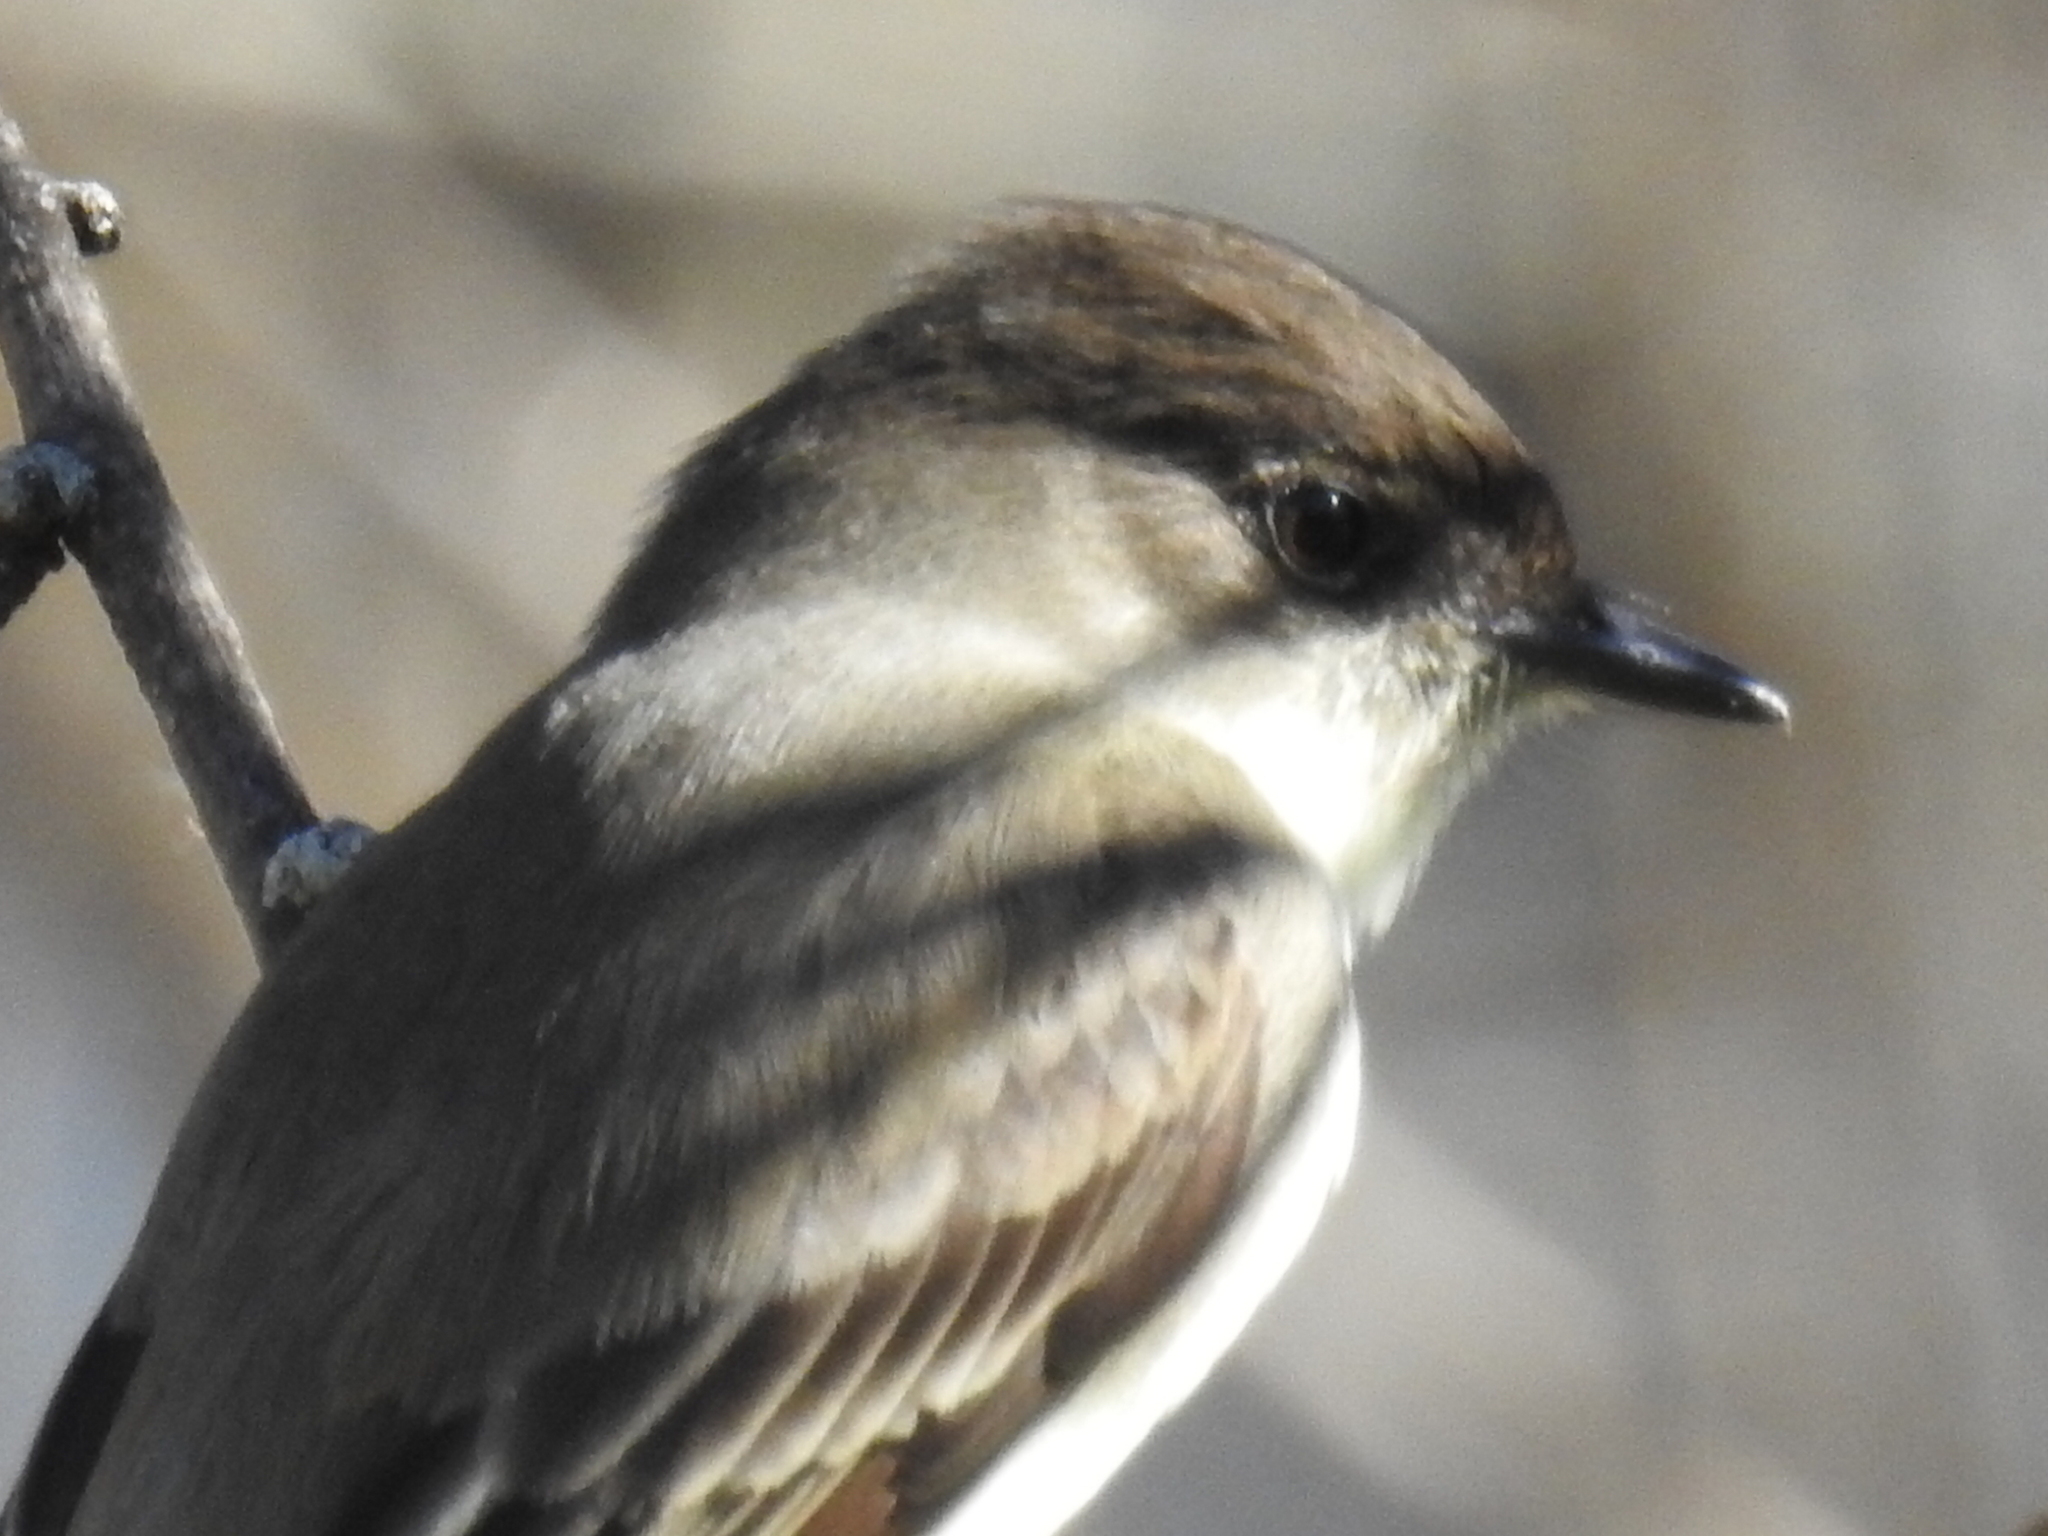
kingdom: Animalia
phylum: Chordata
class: Aves
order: Passeriformes
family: Tyrannidae
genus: Sayornis
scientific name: Sayornis phoebe
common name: Eastern phoebe
